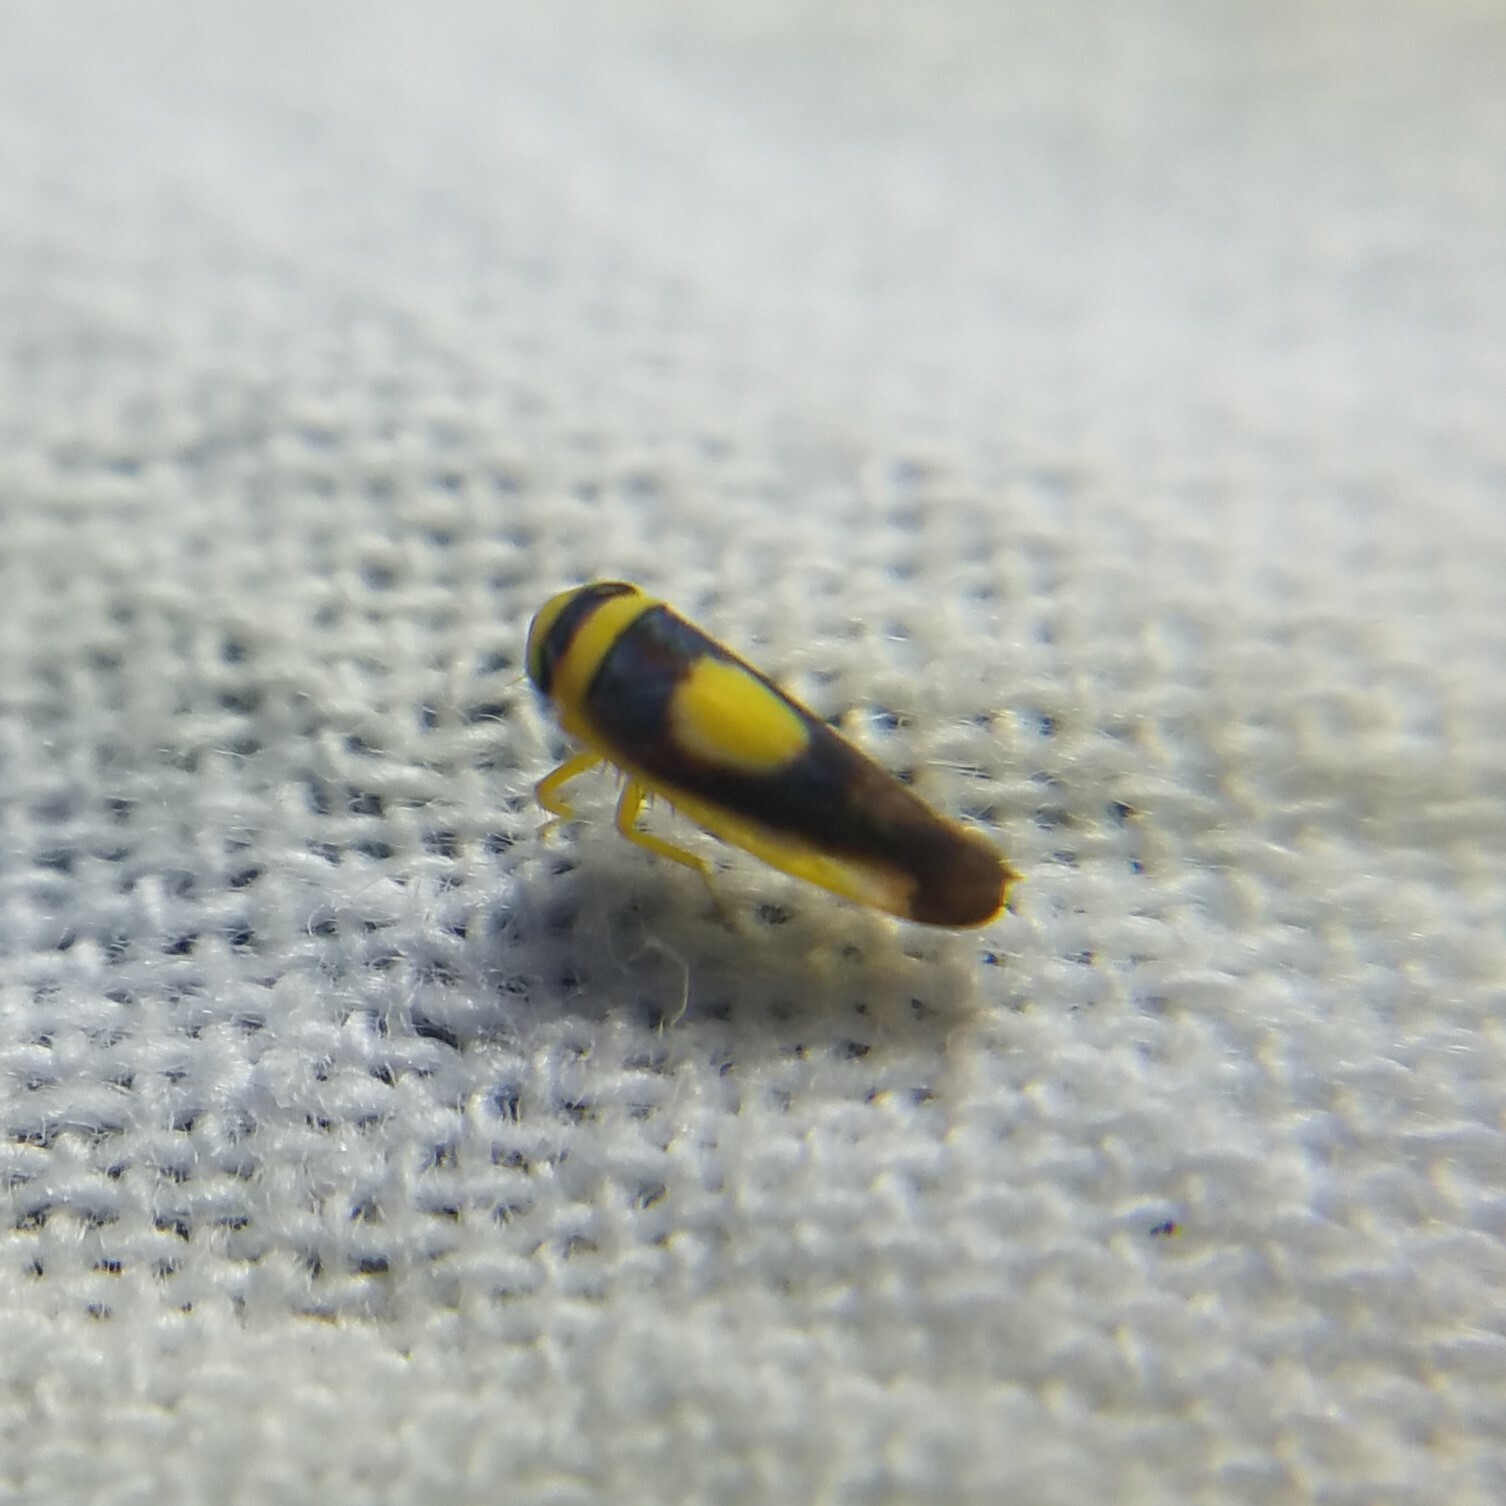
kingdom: Animalia
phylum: Arthropoda
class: Insecta
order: Hemiptera
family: Cicadellidae
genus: Colladonus
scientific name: Colladonus clitellarius
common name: The saddleback leafhopper
